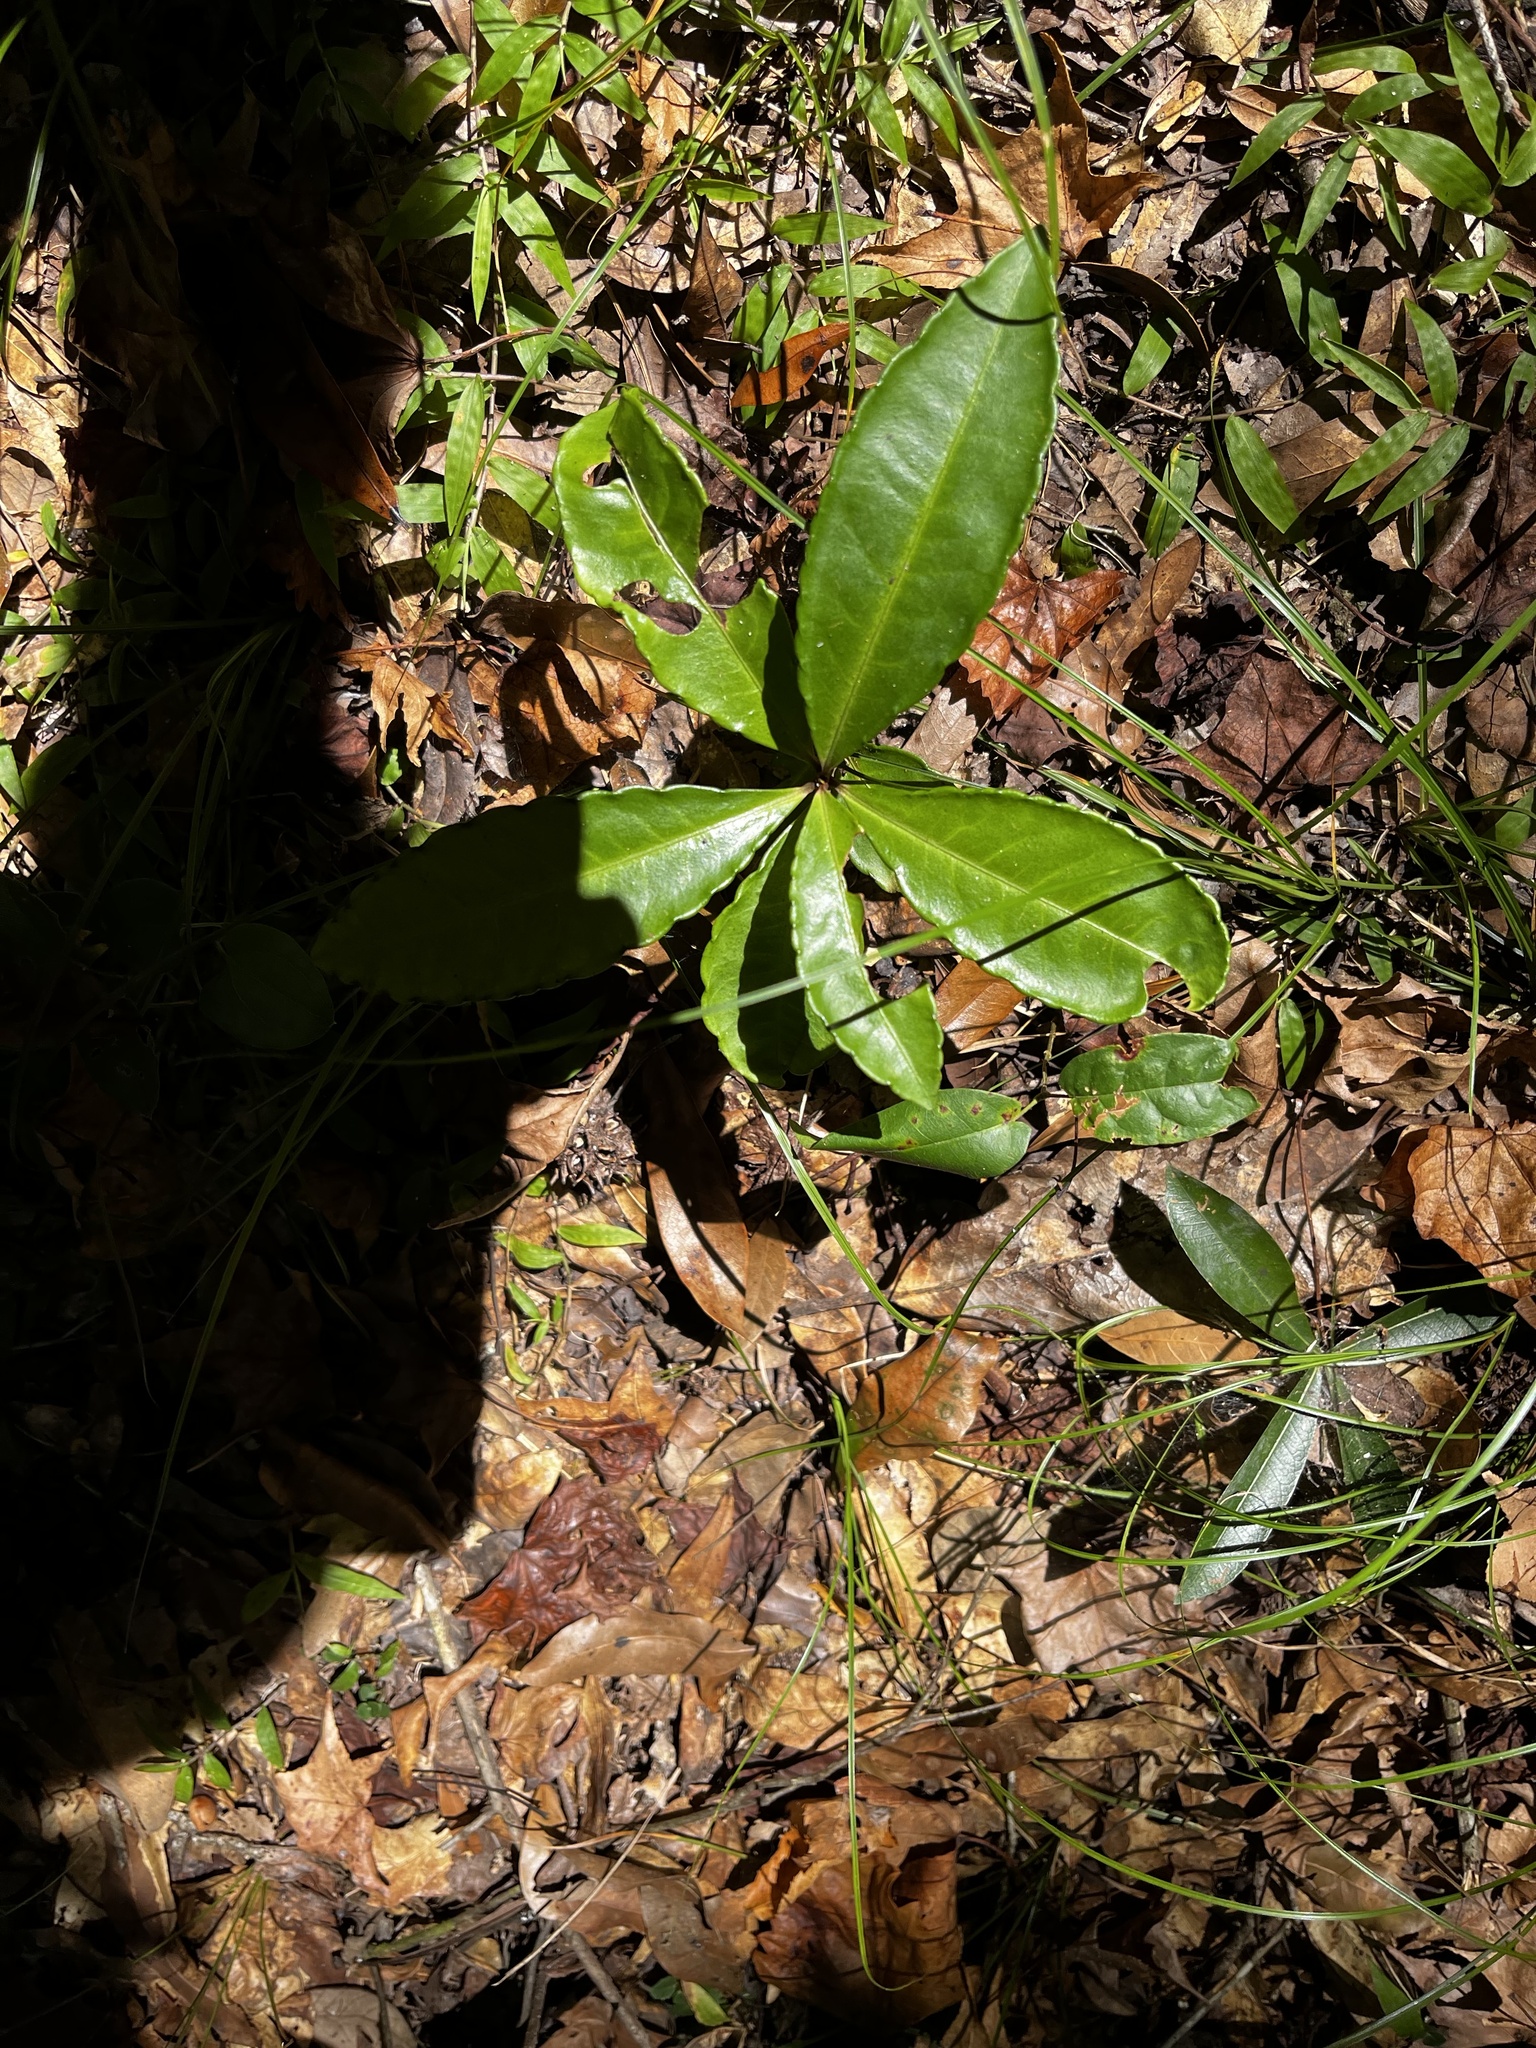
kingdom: Plantae
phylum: Tracheophyta
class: Magnoliopsida
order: Ericales
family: Primulaceae
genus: Ardisia
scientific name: Ardisia crenata
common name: Hen's eyes
